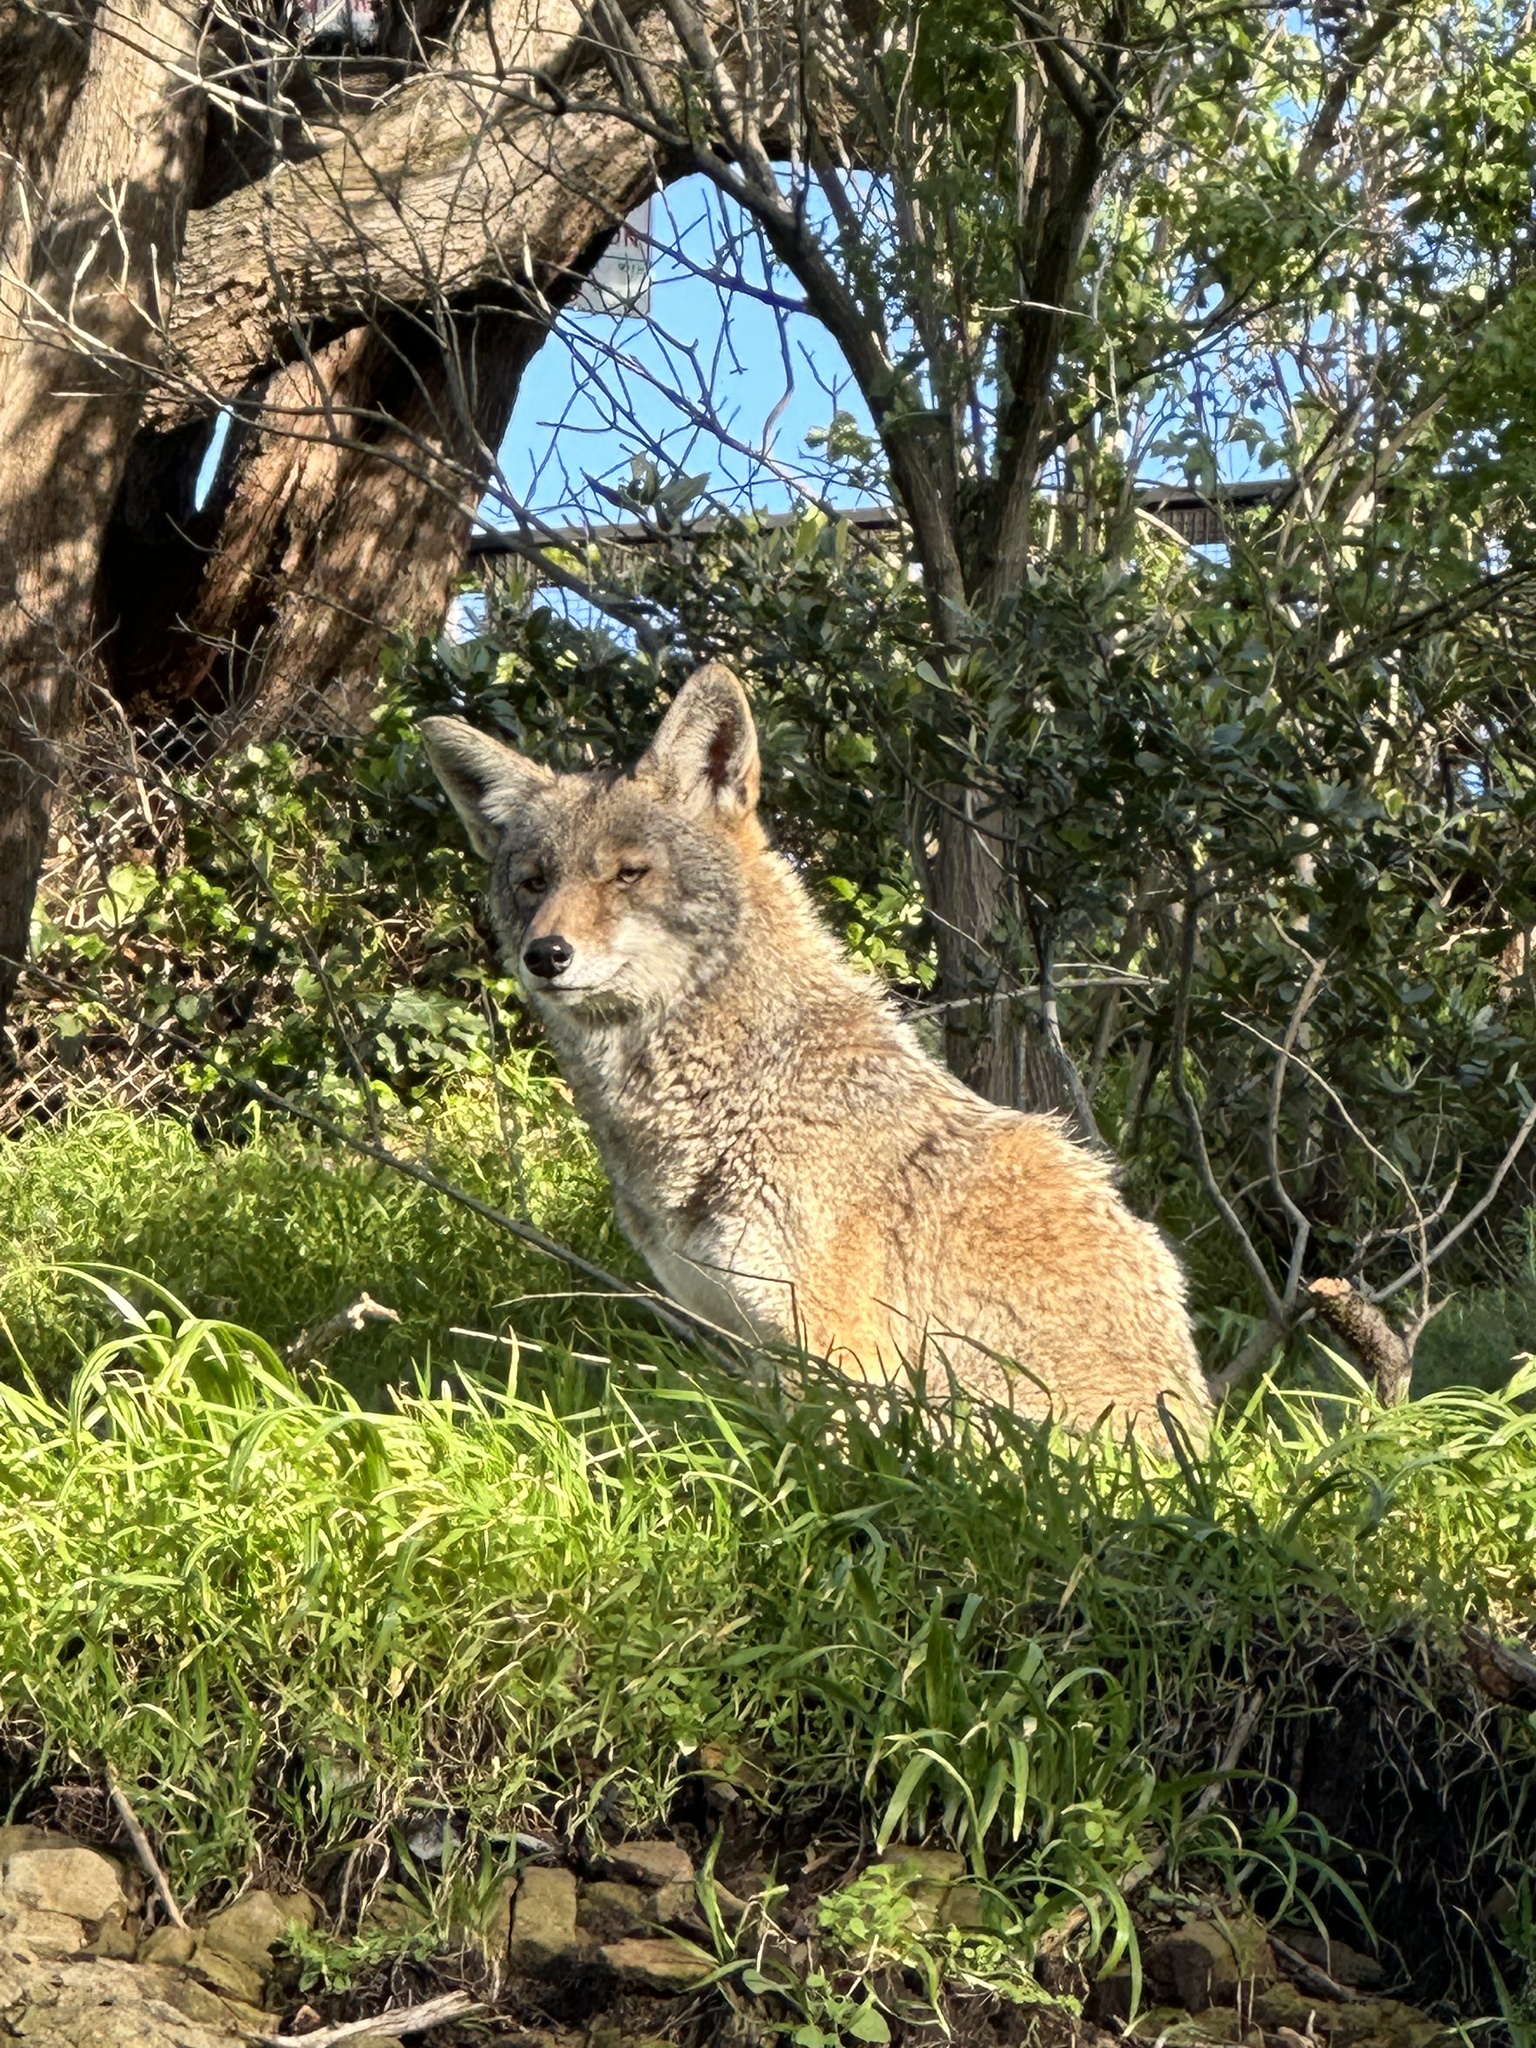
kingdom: Animalia
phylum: Chordata
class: Mammalia
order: Carnivora
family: Canidae
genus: Canis
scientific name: Canis latrans
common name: Coyote
